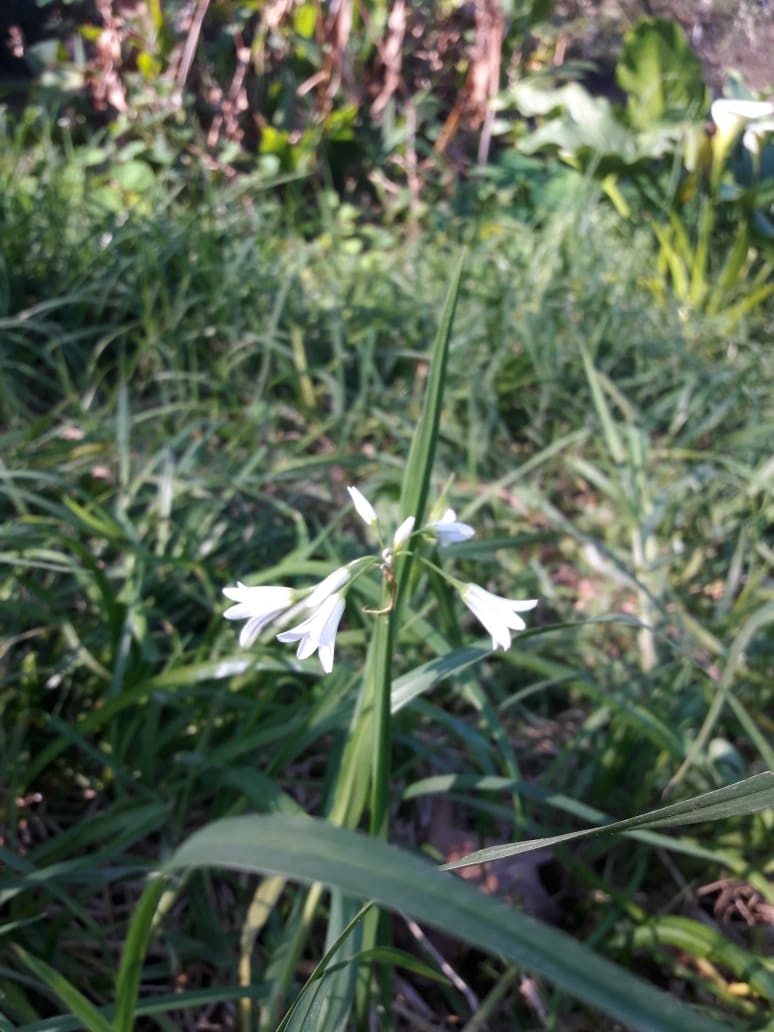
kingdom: Plantae
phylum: Tracheophyta
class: Liliopsida
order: Asparagales
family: Amaryllidaceae
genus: Allium
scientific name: Allium triquetrum
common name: Three-cornered garlic
